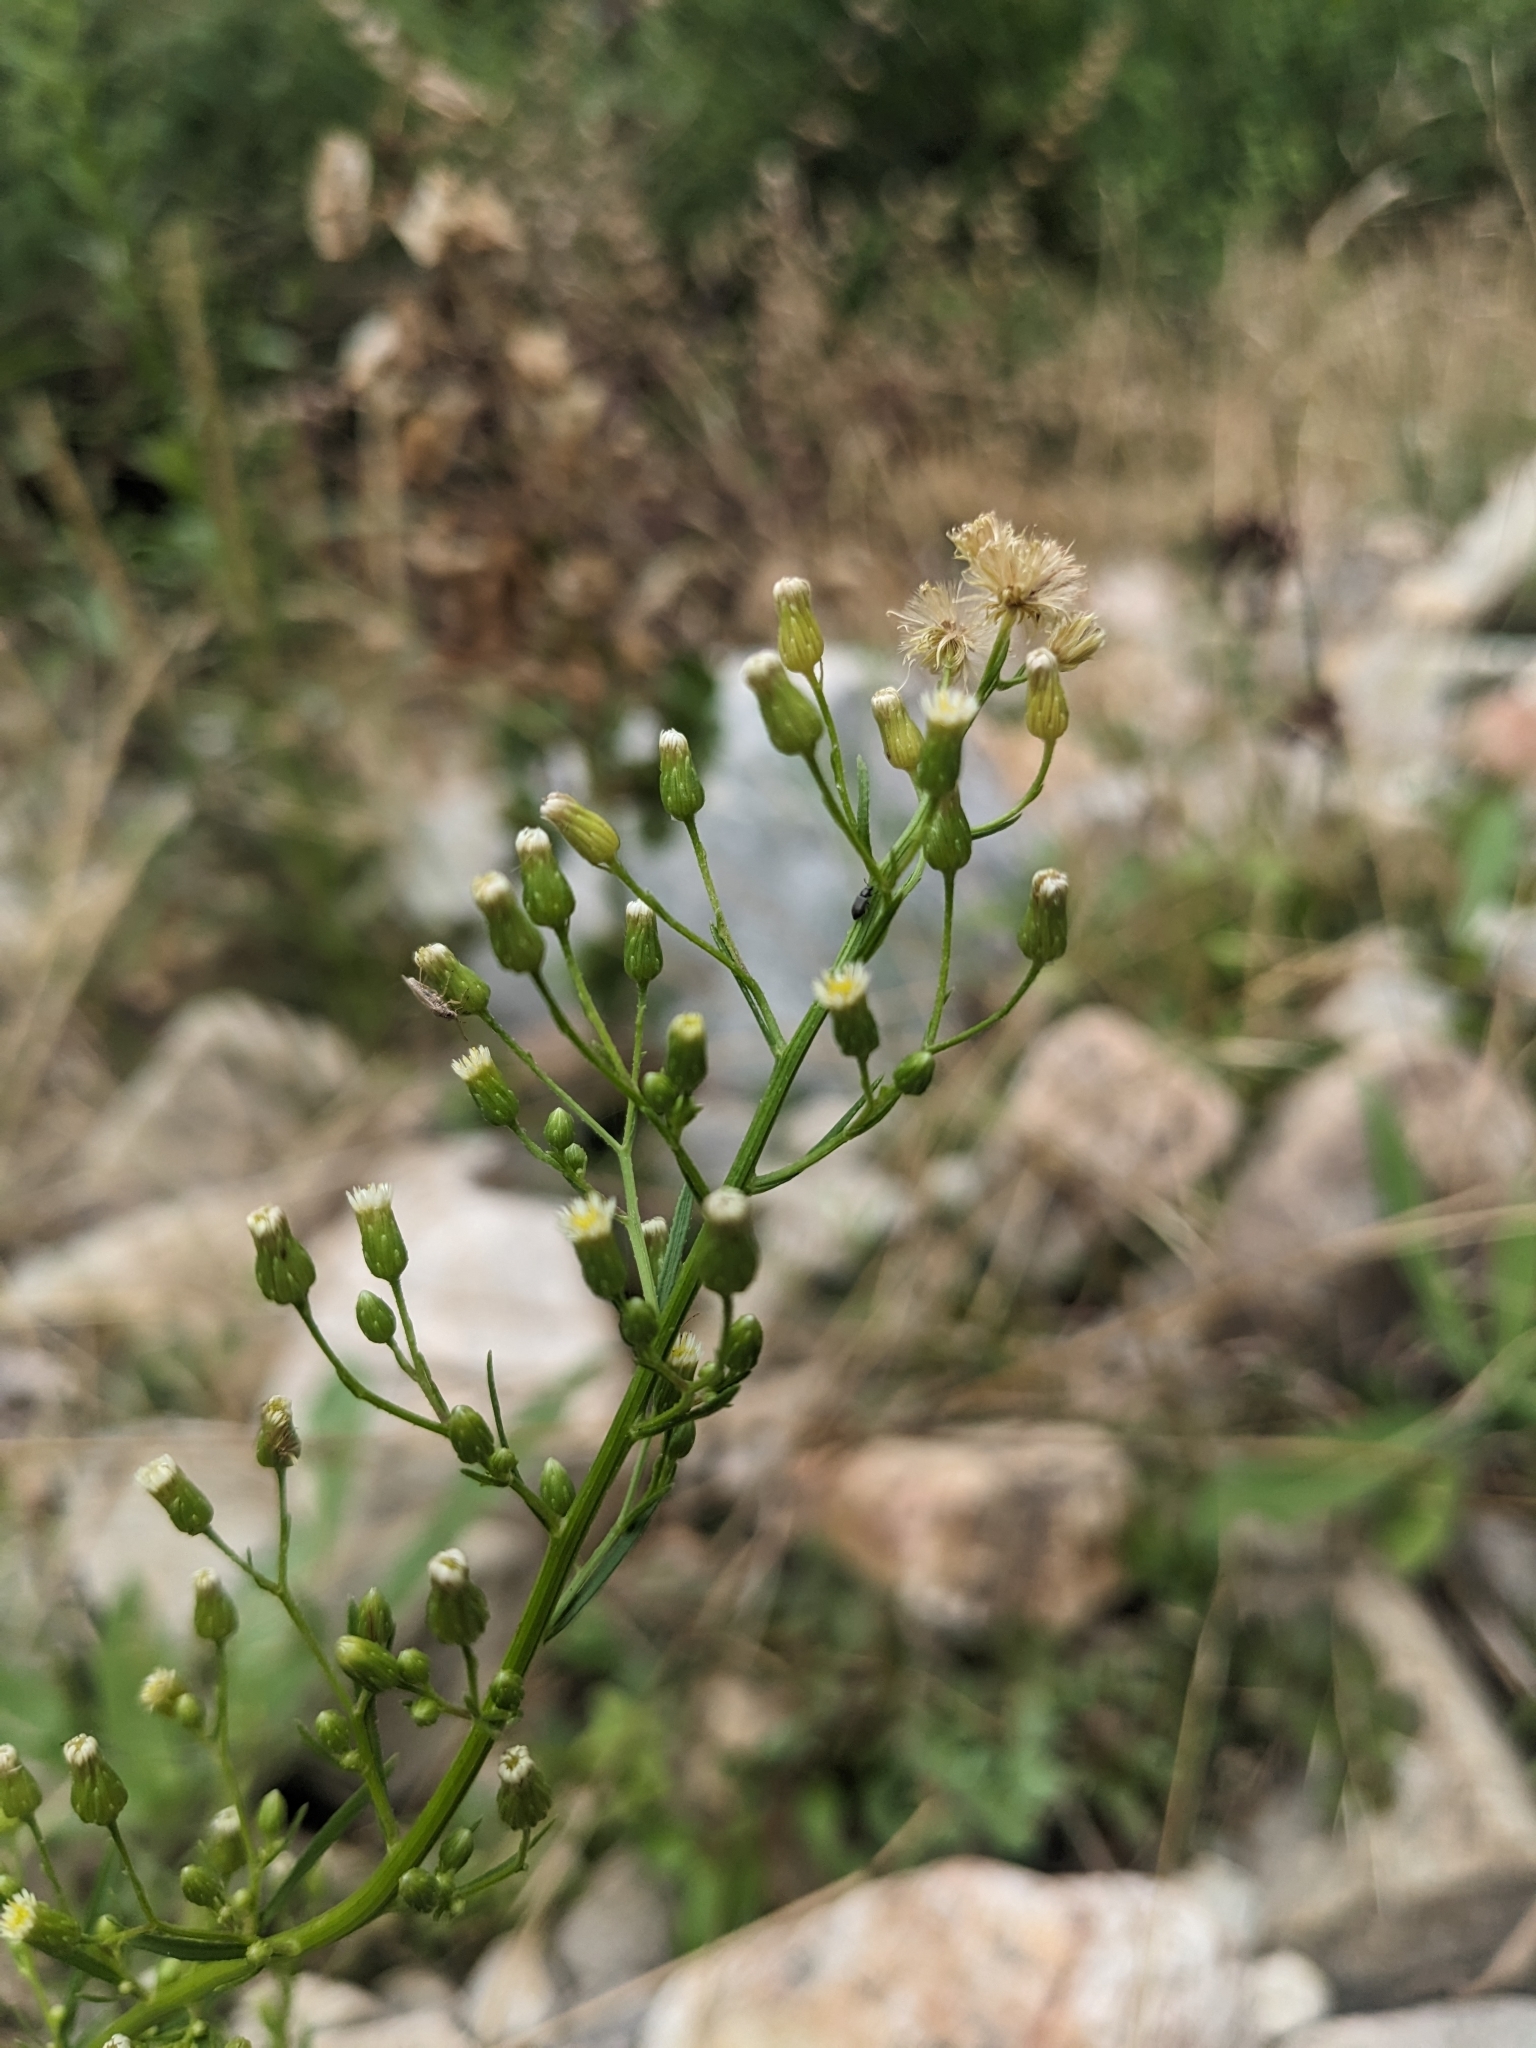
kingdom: Plantae
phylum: Tracheophyta
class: Magnoliopsida
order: Asterales
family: Asteraceae
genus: Erigeron
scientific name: Erigeron canadensis
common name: Canadian fleabane
